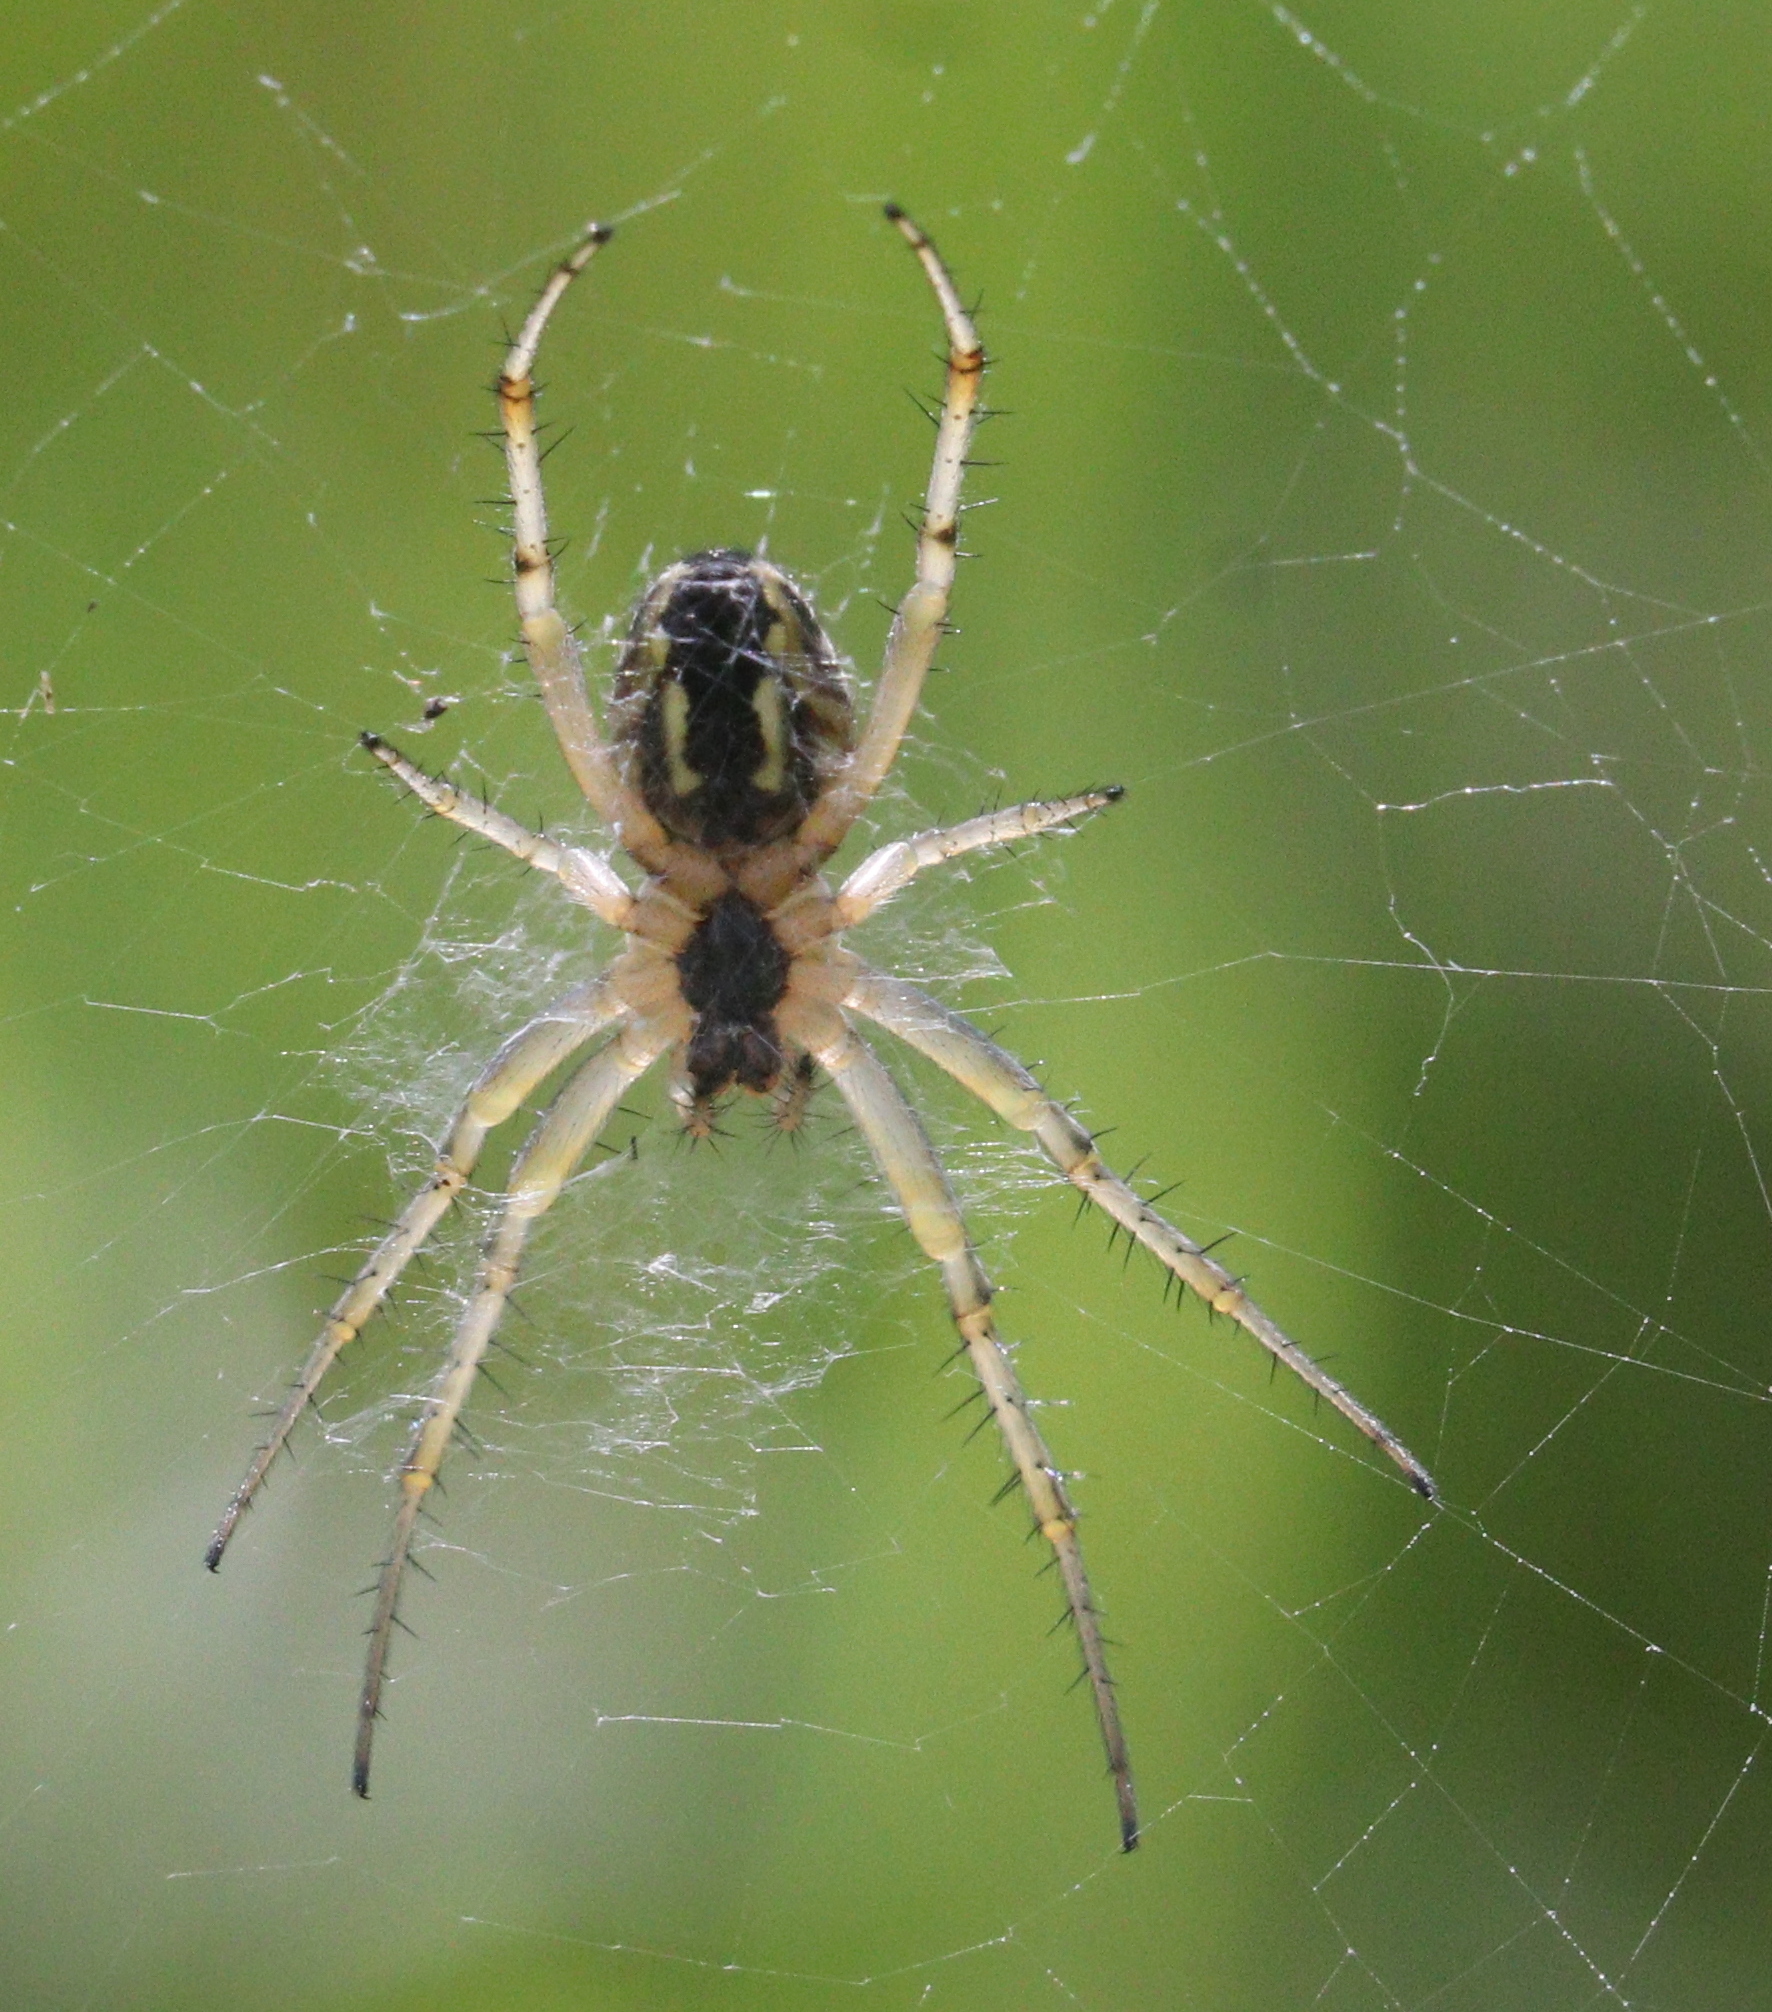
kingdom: Animalia
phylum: Arthropoda
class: Arachnida
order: Araneae
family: Araneidae
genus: Neoscona
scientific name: Neoscona adianta
